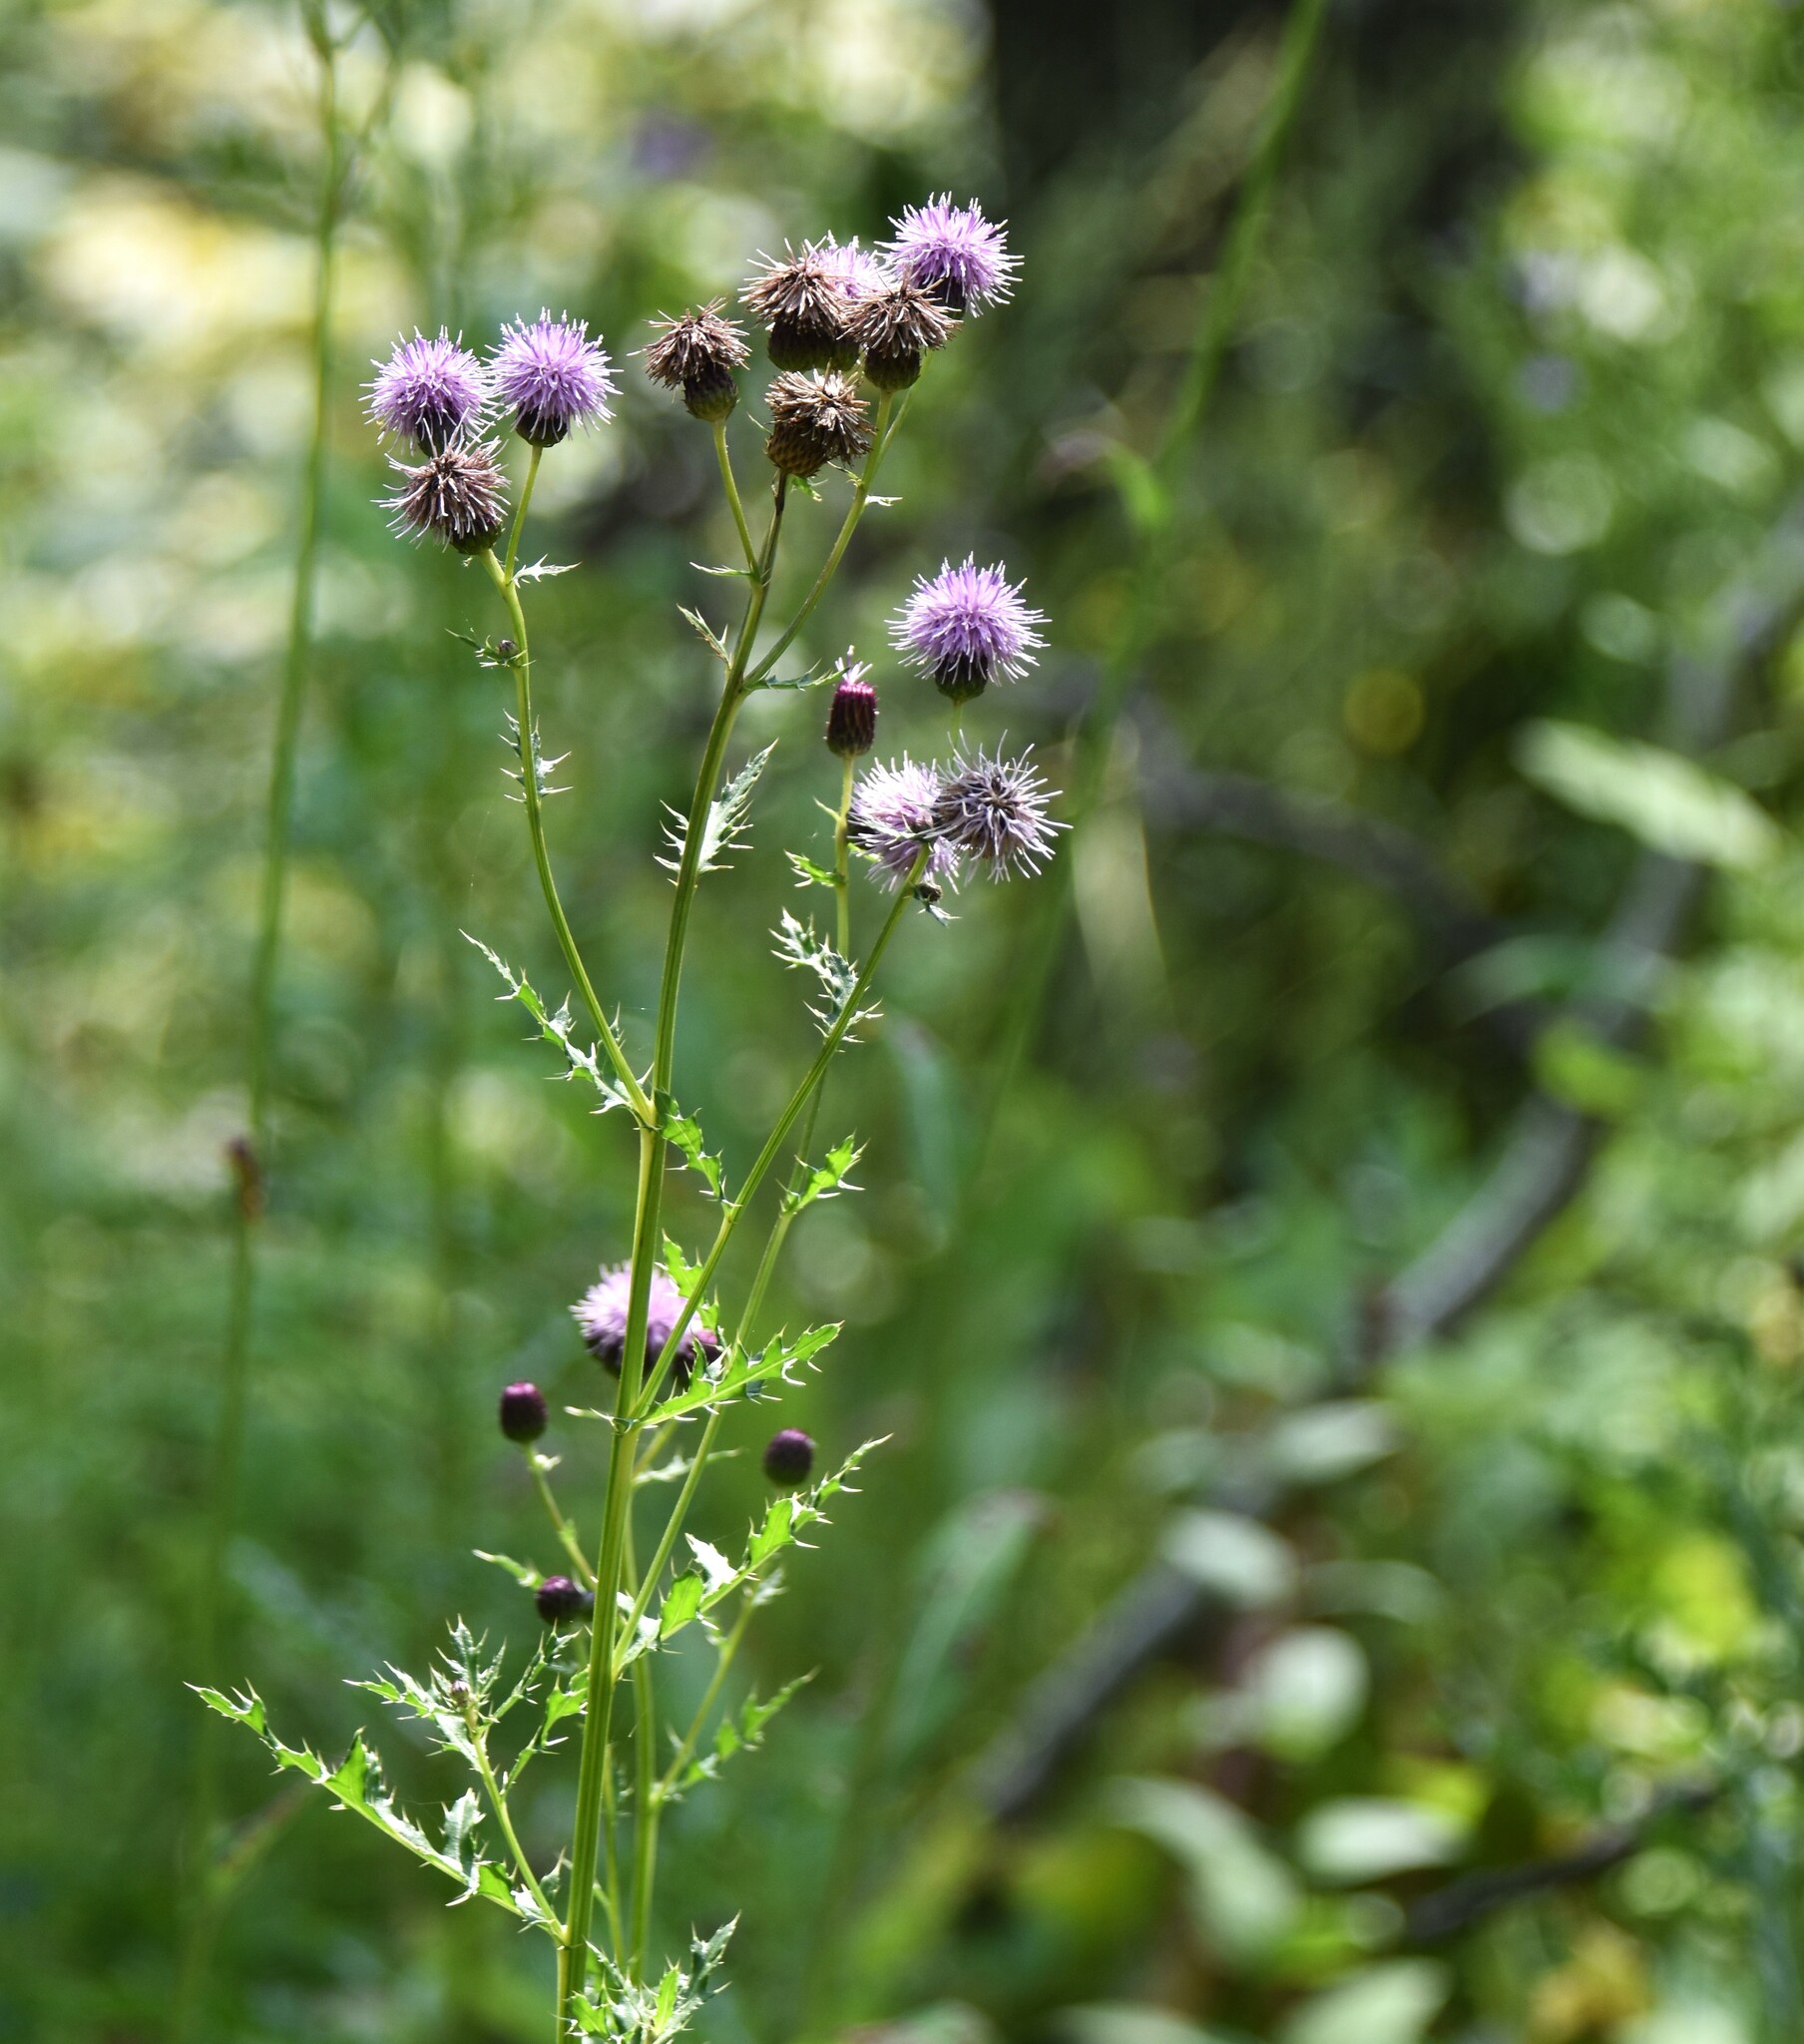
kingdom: Plantae
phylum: Tracheophyta
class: Magnoliopsida
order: Asterales
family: Asteraceae
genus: Cirsium
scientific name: Cirsium arvense
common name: Creeping thistle
